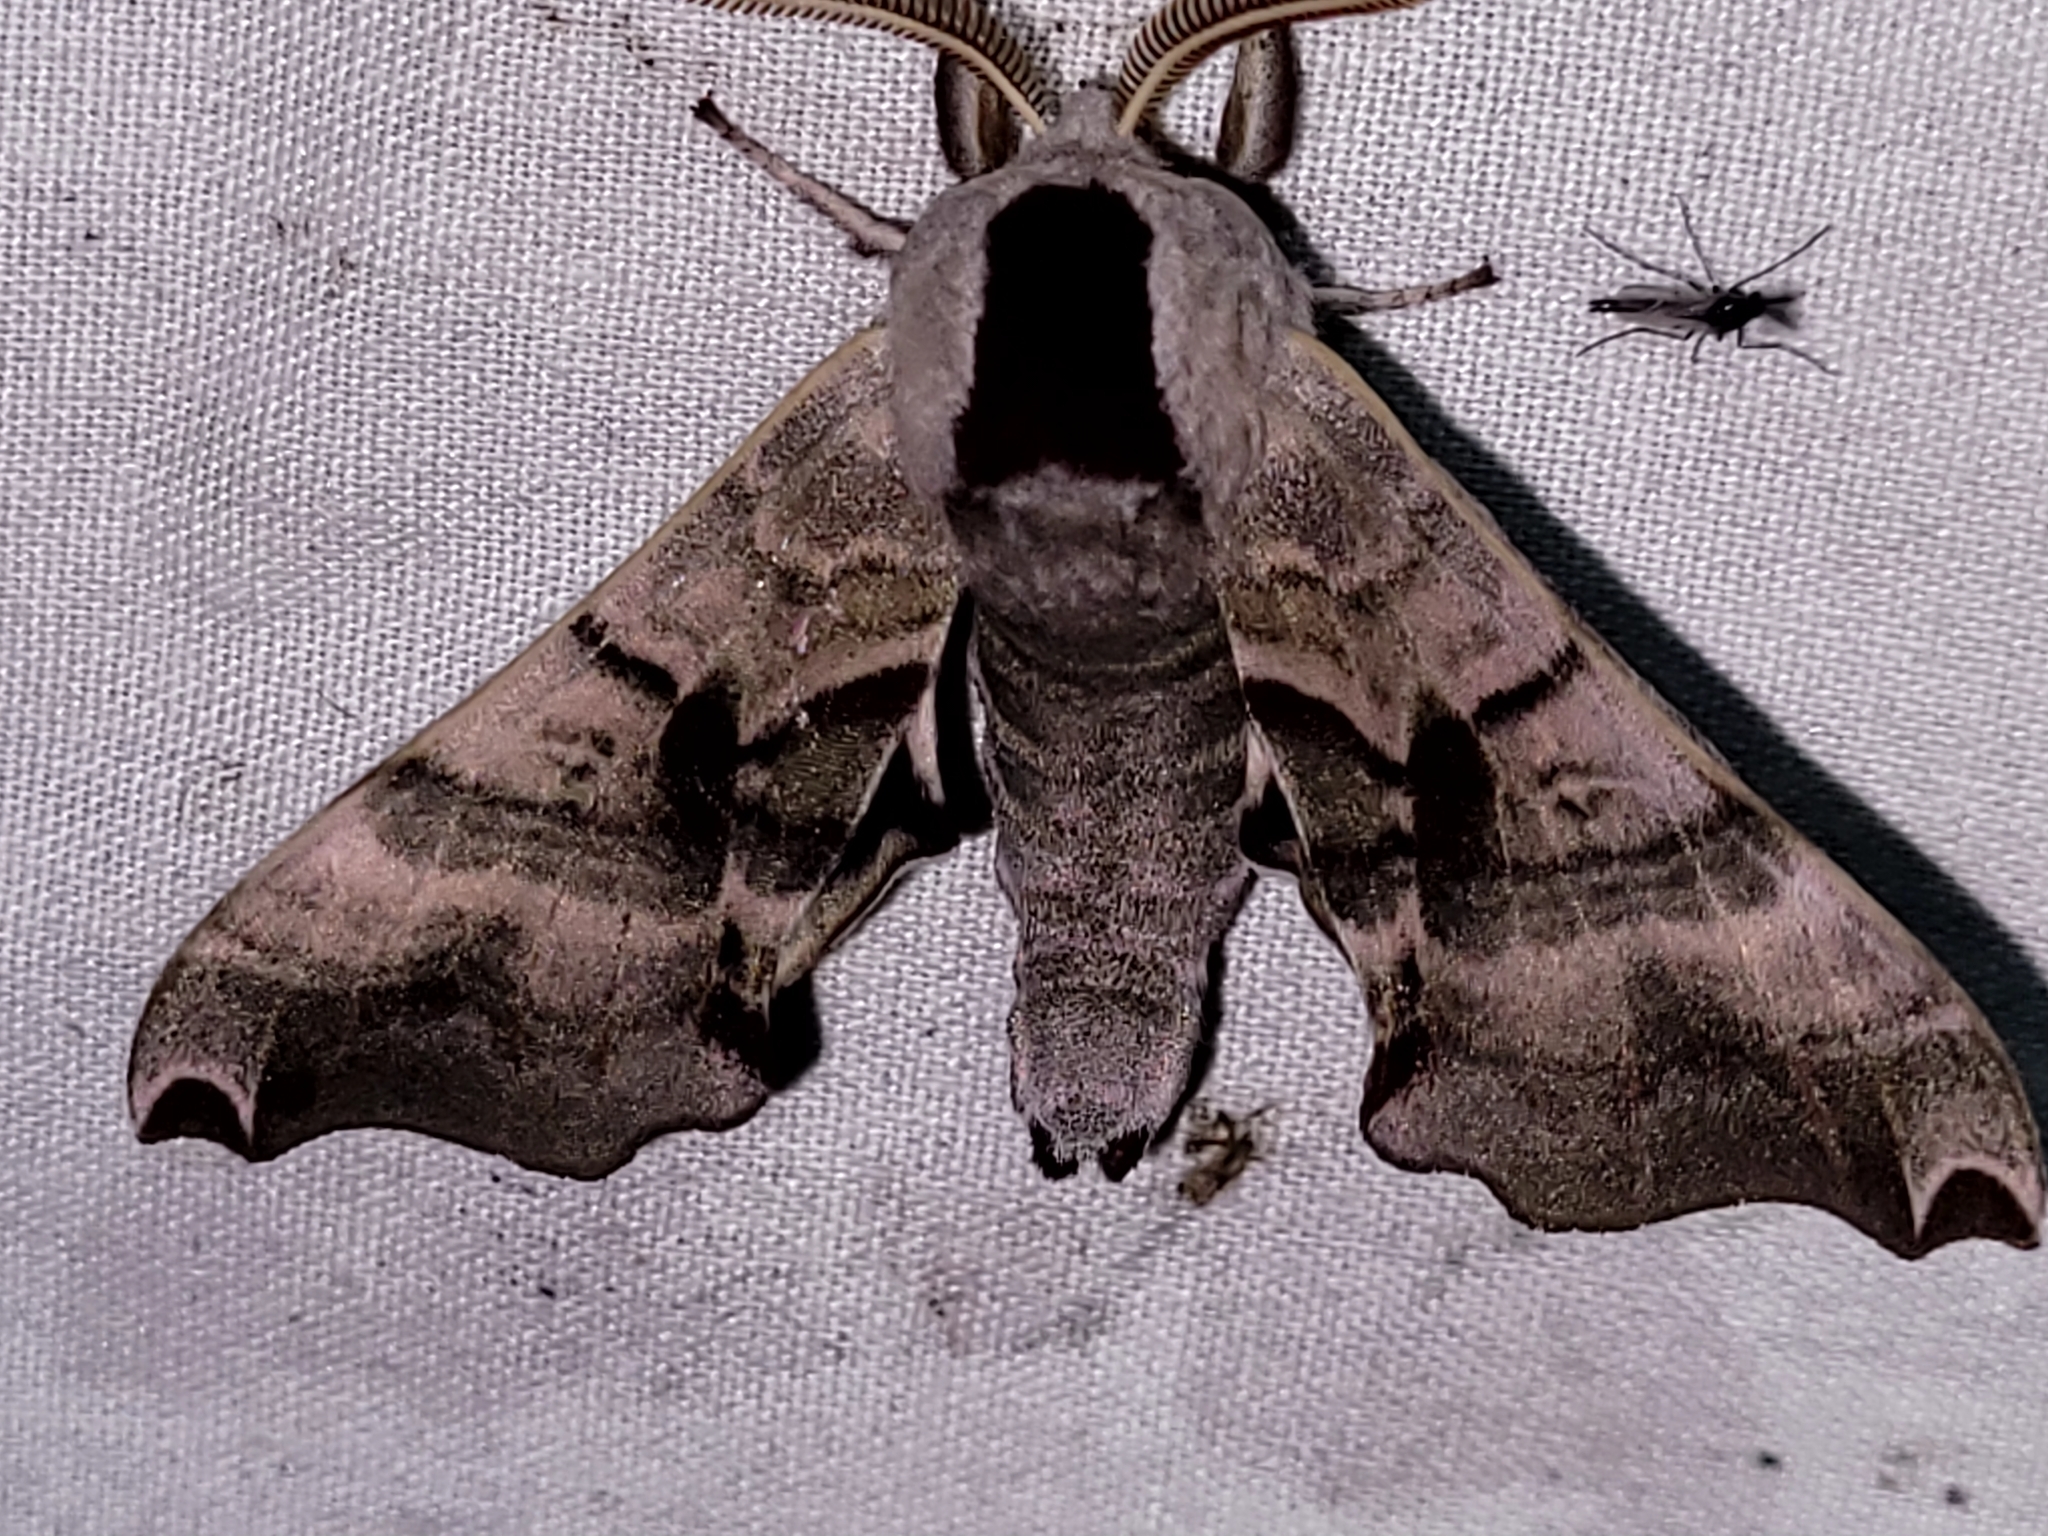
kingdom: Animalia
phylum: Arthropoda
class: Insecta
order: Lepidoptera
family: Sphingidae
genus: Smerinthus
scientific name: Smerinthus jamaicensis
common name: Twin spotted sphinx
